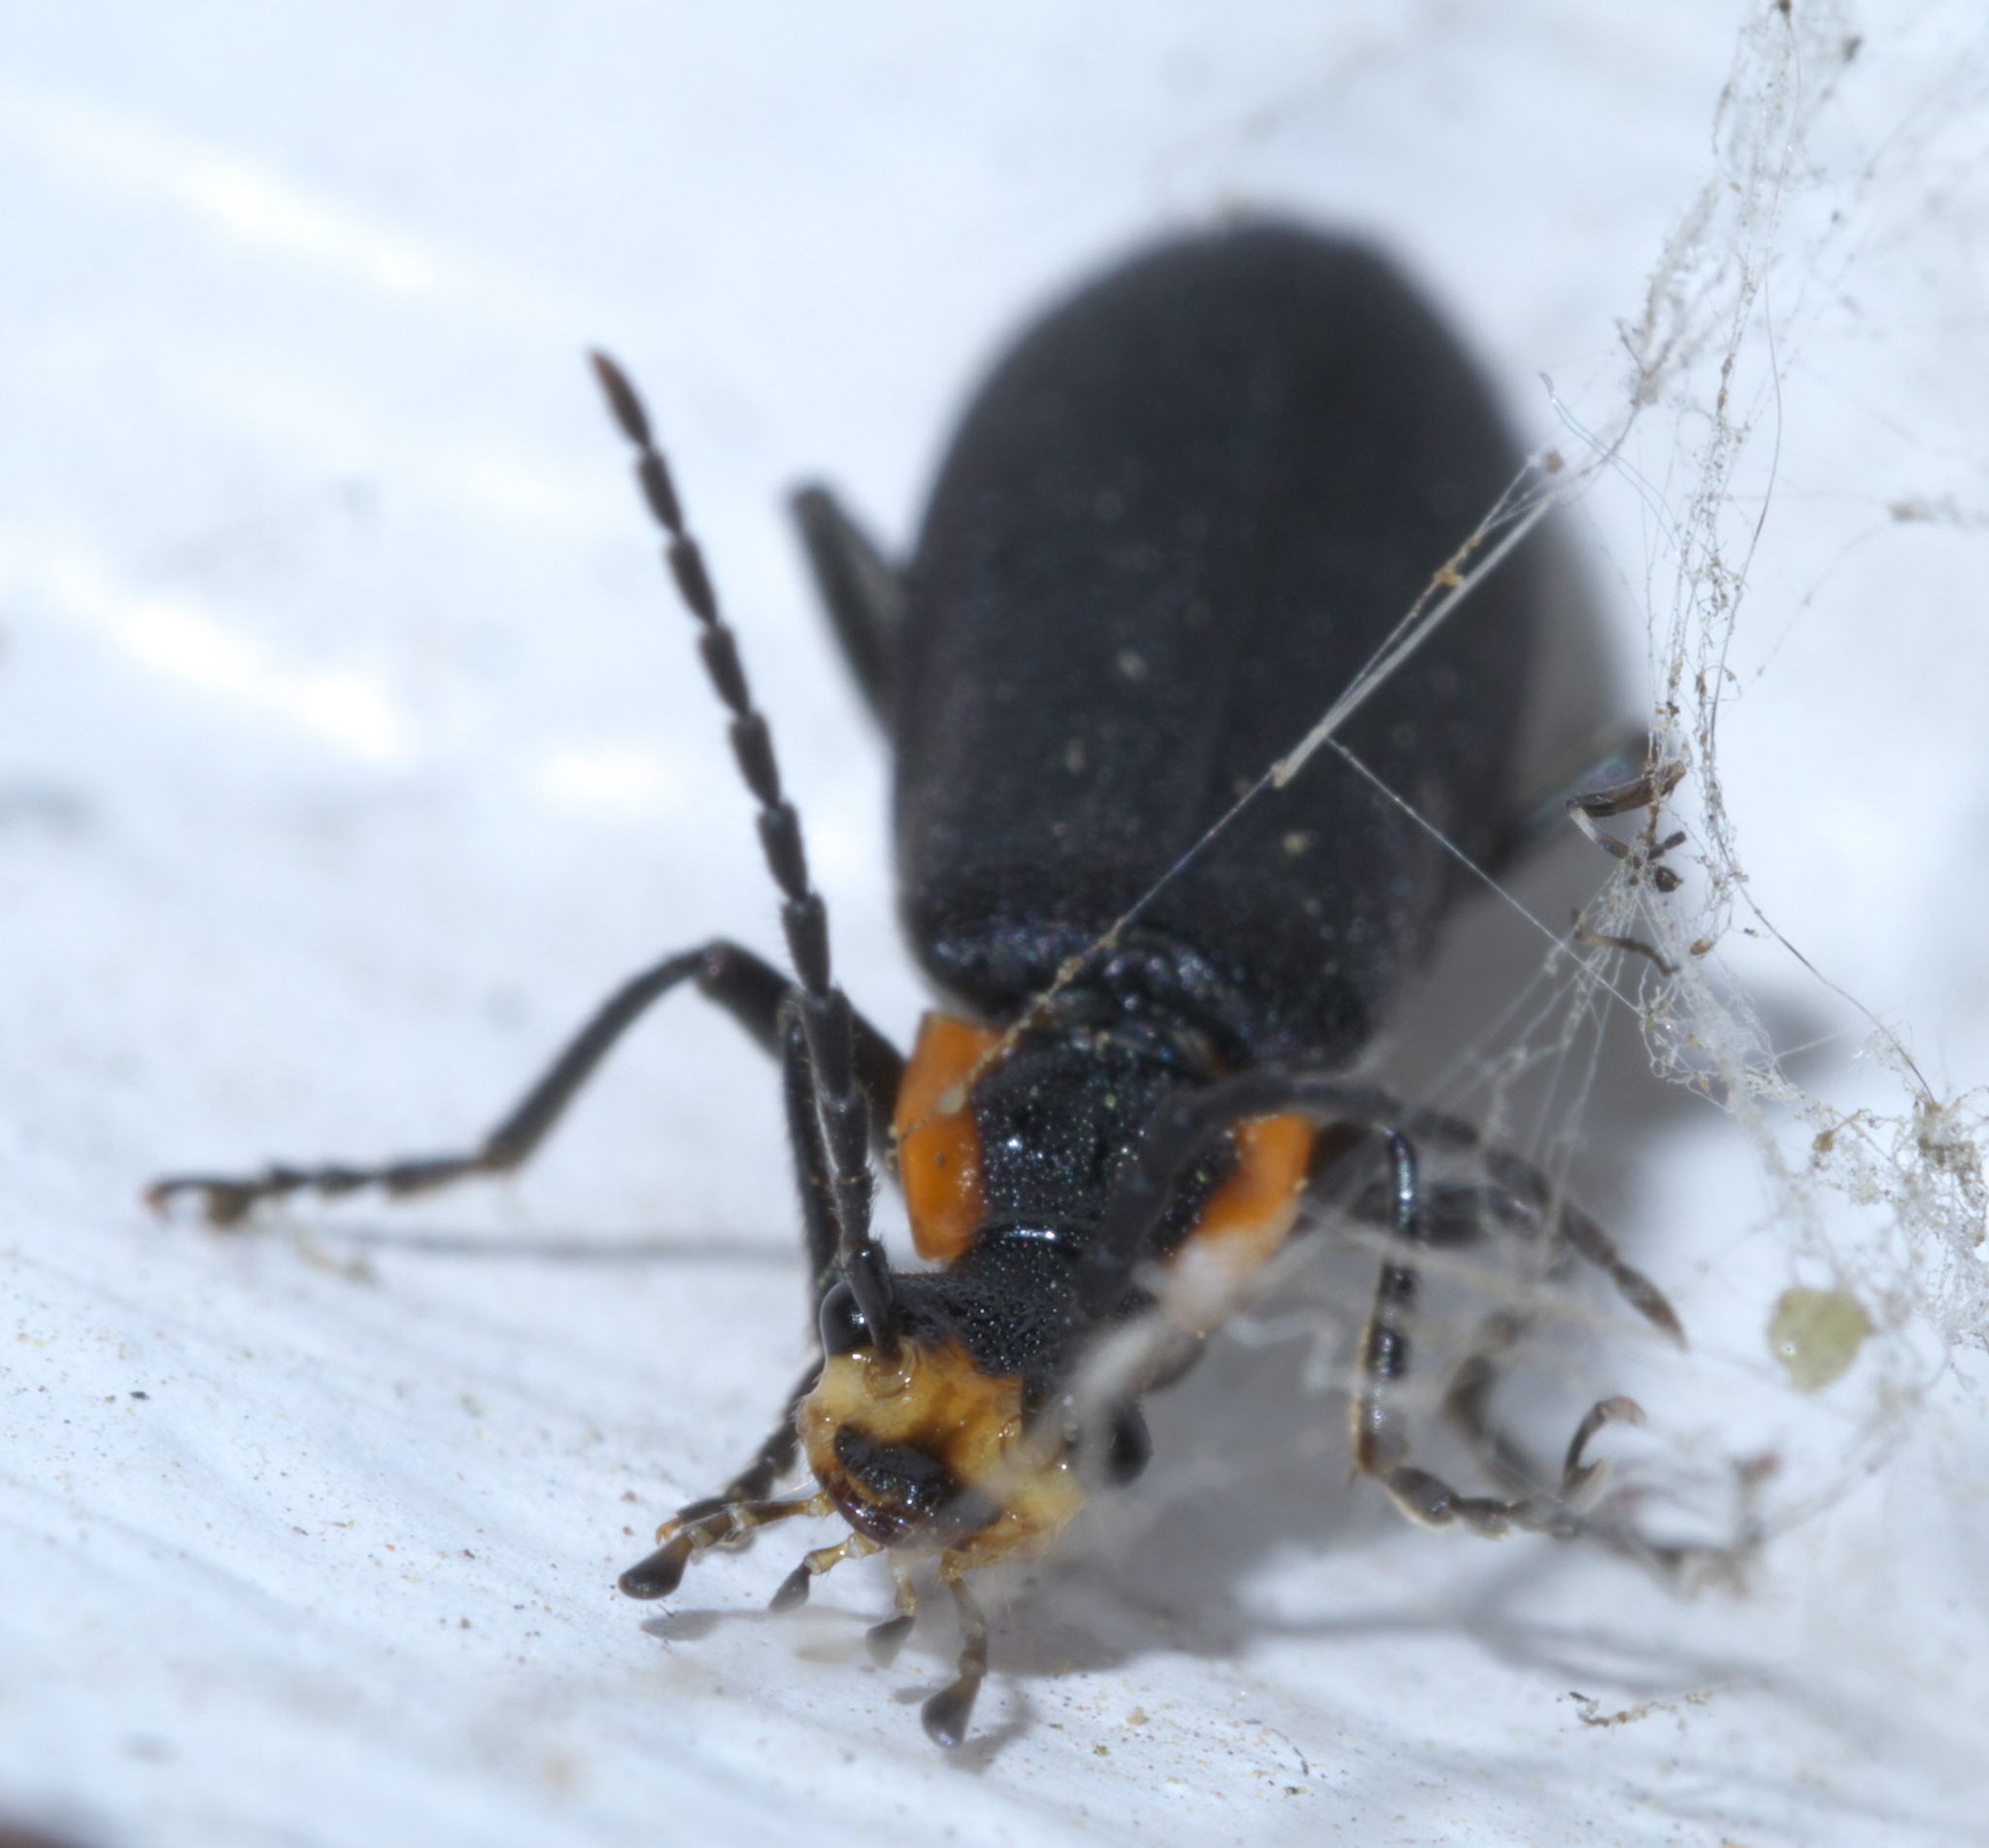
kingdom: Animalia
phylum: Arthropoda
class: Insecta
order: Coleoptera
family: Cantharidae
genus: Podabrus
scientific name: Podabrus rugosulus
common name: Wrinkled soldier beetle
